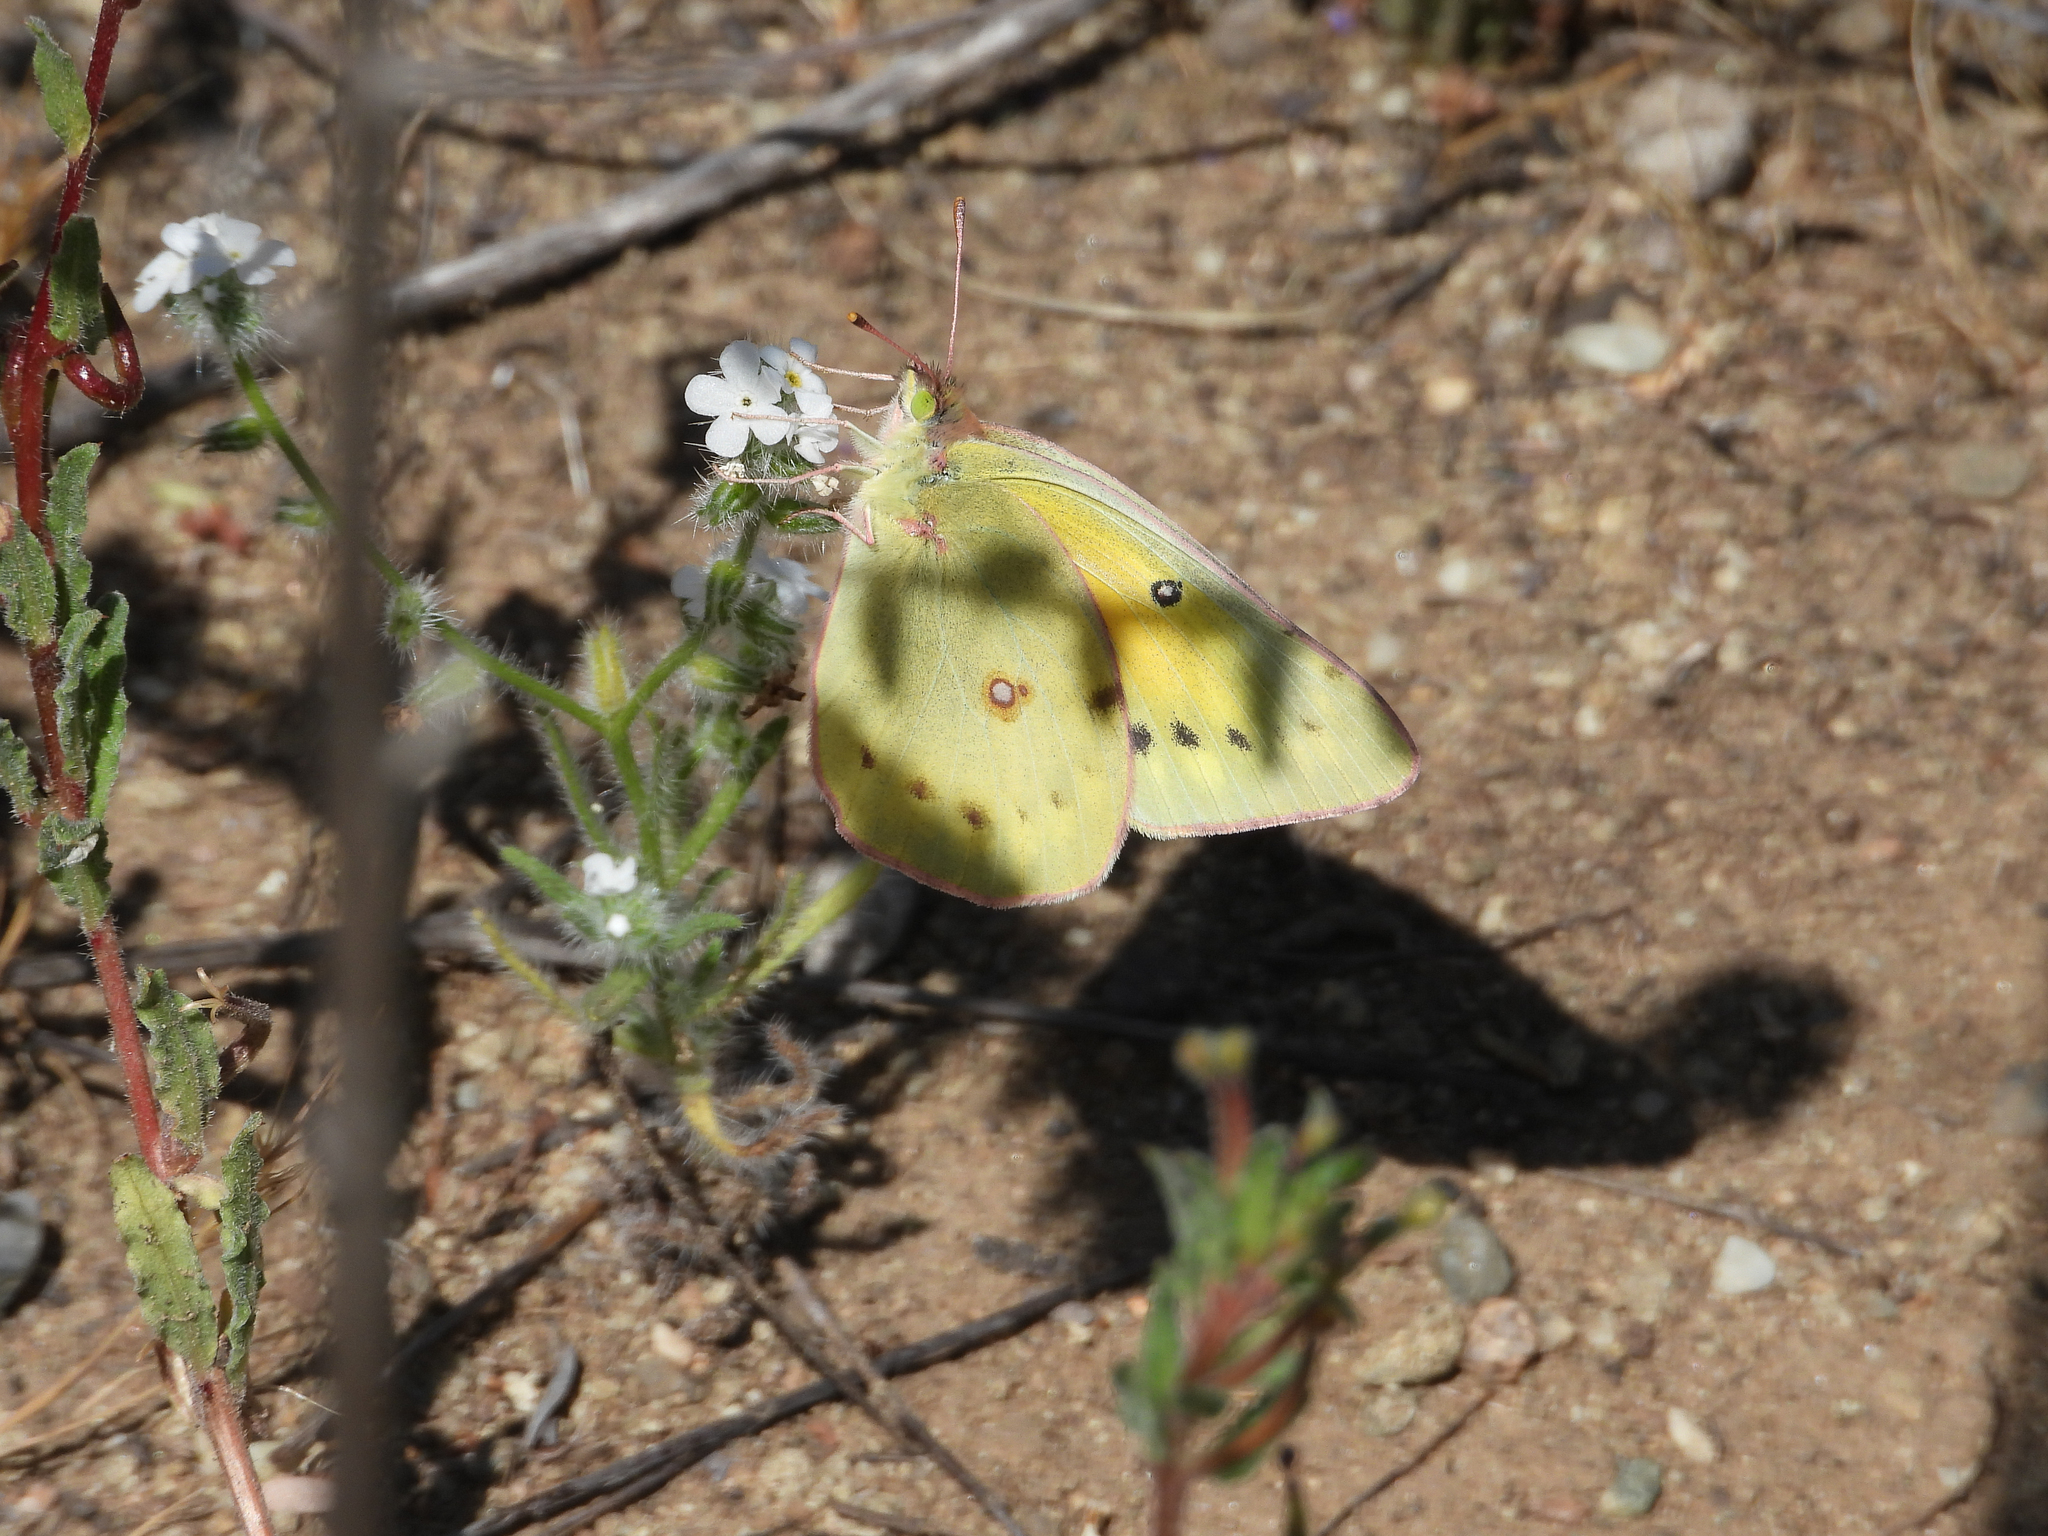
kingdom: Animalia
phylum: Arthropoda
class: Insecta
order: Lepidoptera
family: Pieridae
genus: Colias
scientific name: Colias eurytheme
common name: Alfalfa butterfly
